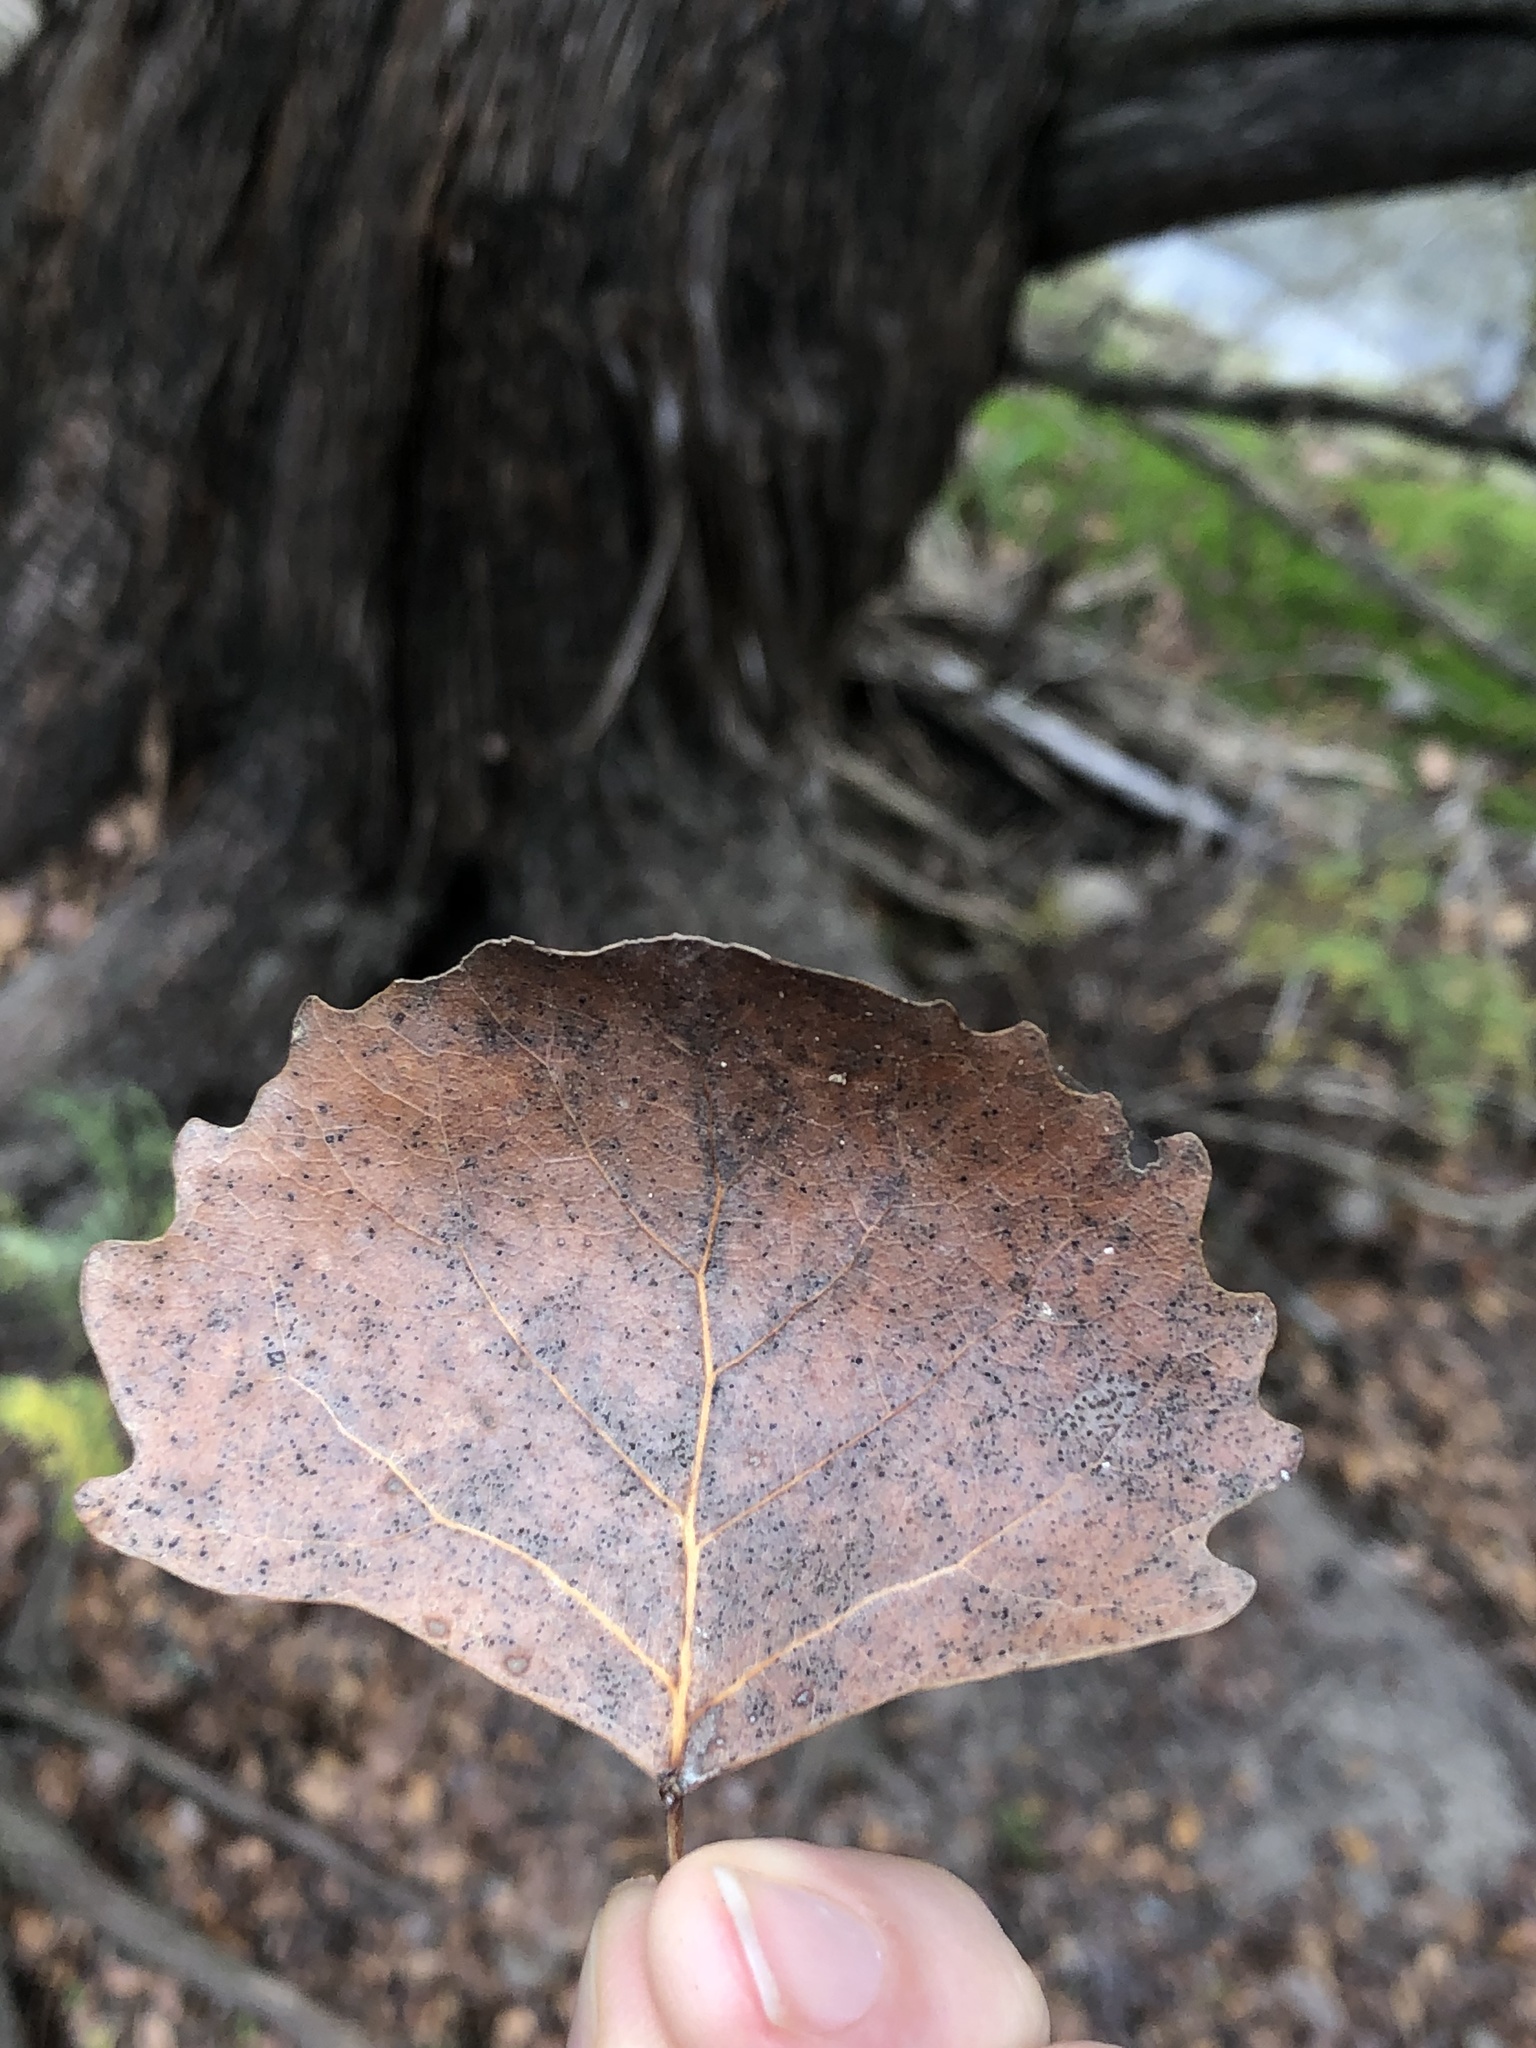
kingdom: Plantae
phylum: Tracheophyta
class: Magnoliopsida
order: Malpighiales
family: Salicaceae
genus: Populus
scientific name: Populus deltoides
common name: Eastern cottonwood
